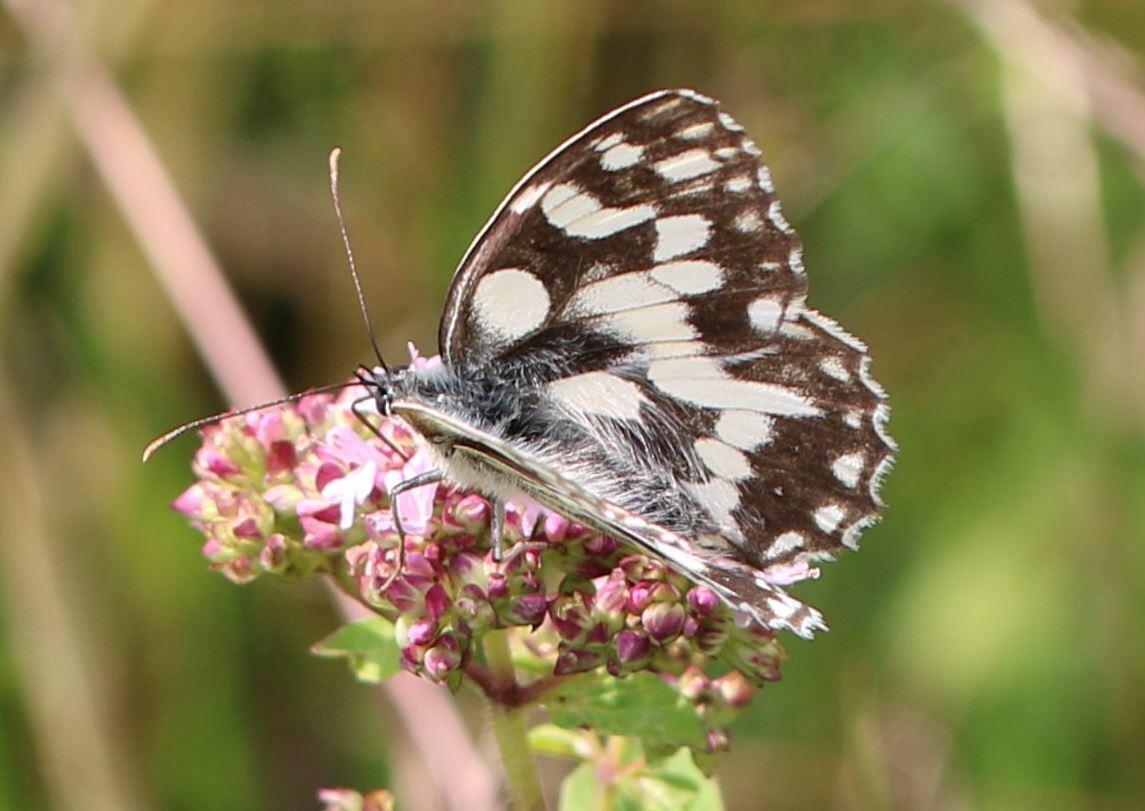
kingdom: Animalia
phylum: Arthropoda
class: Insecta
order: Lepidoptera
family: Nymphalidae
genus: Melanargia
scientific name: Melanargia galathea
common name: Marbled white
